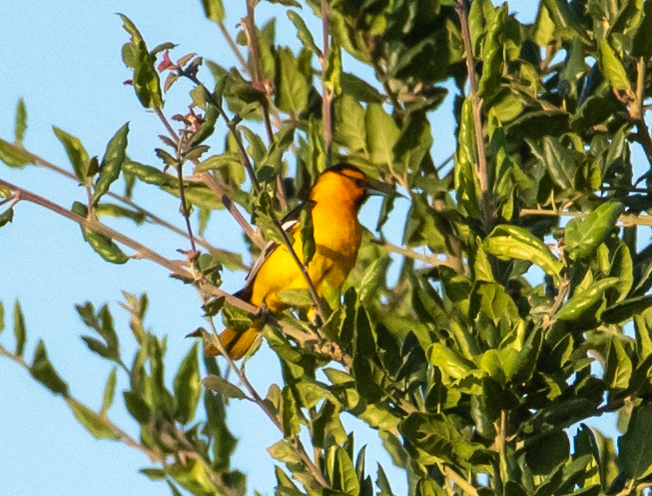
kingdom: Animalia
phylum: Chordata
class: Aves
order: Passeriformes
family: Icteridae
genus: Icterus
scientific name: Icterus bullockii
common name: Bullock's oriole
